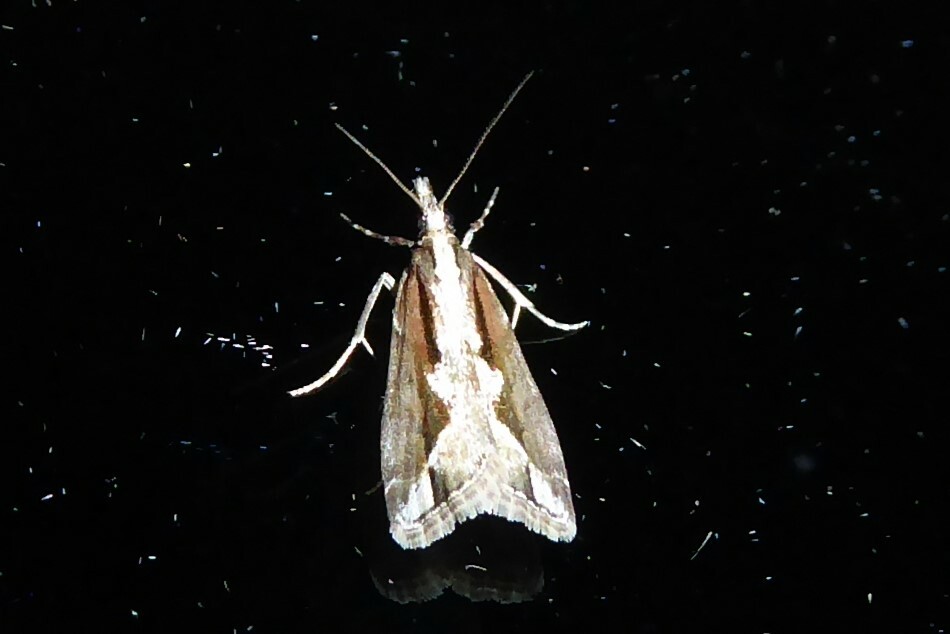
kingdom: Animalia
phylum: Arthropoda
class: Insecta
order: Lepidoptera
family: Crambidae
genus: Eudonia
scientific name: Eudonia steropaea
